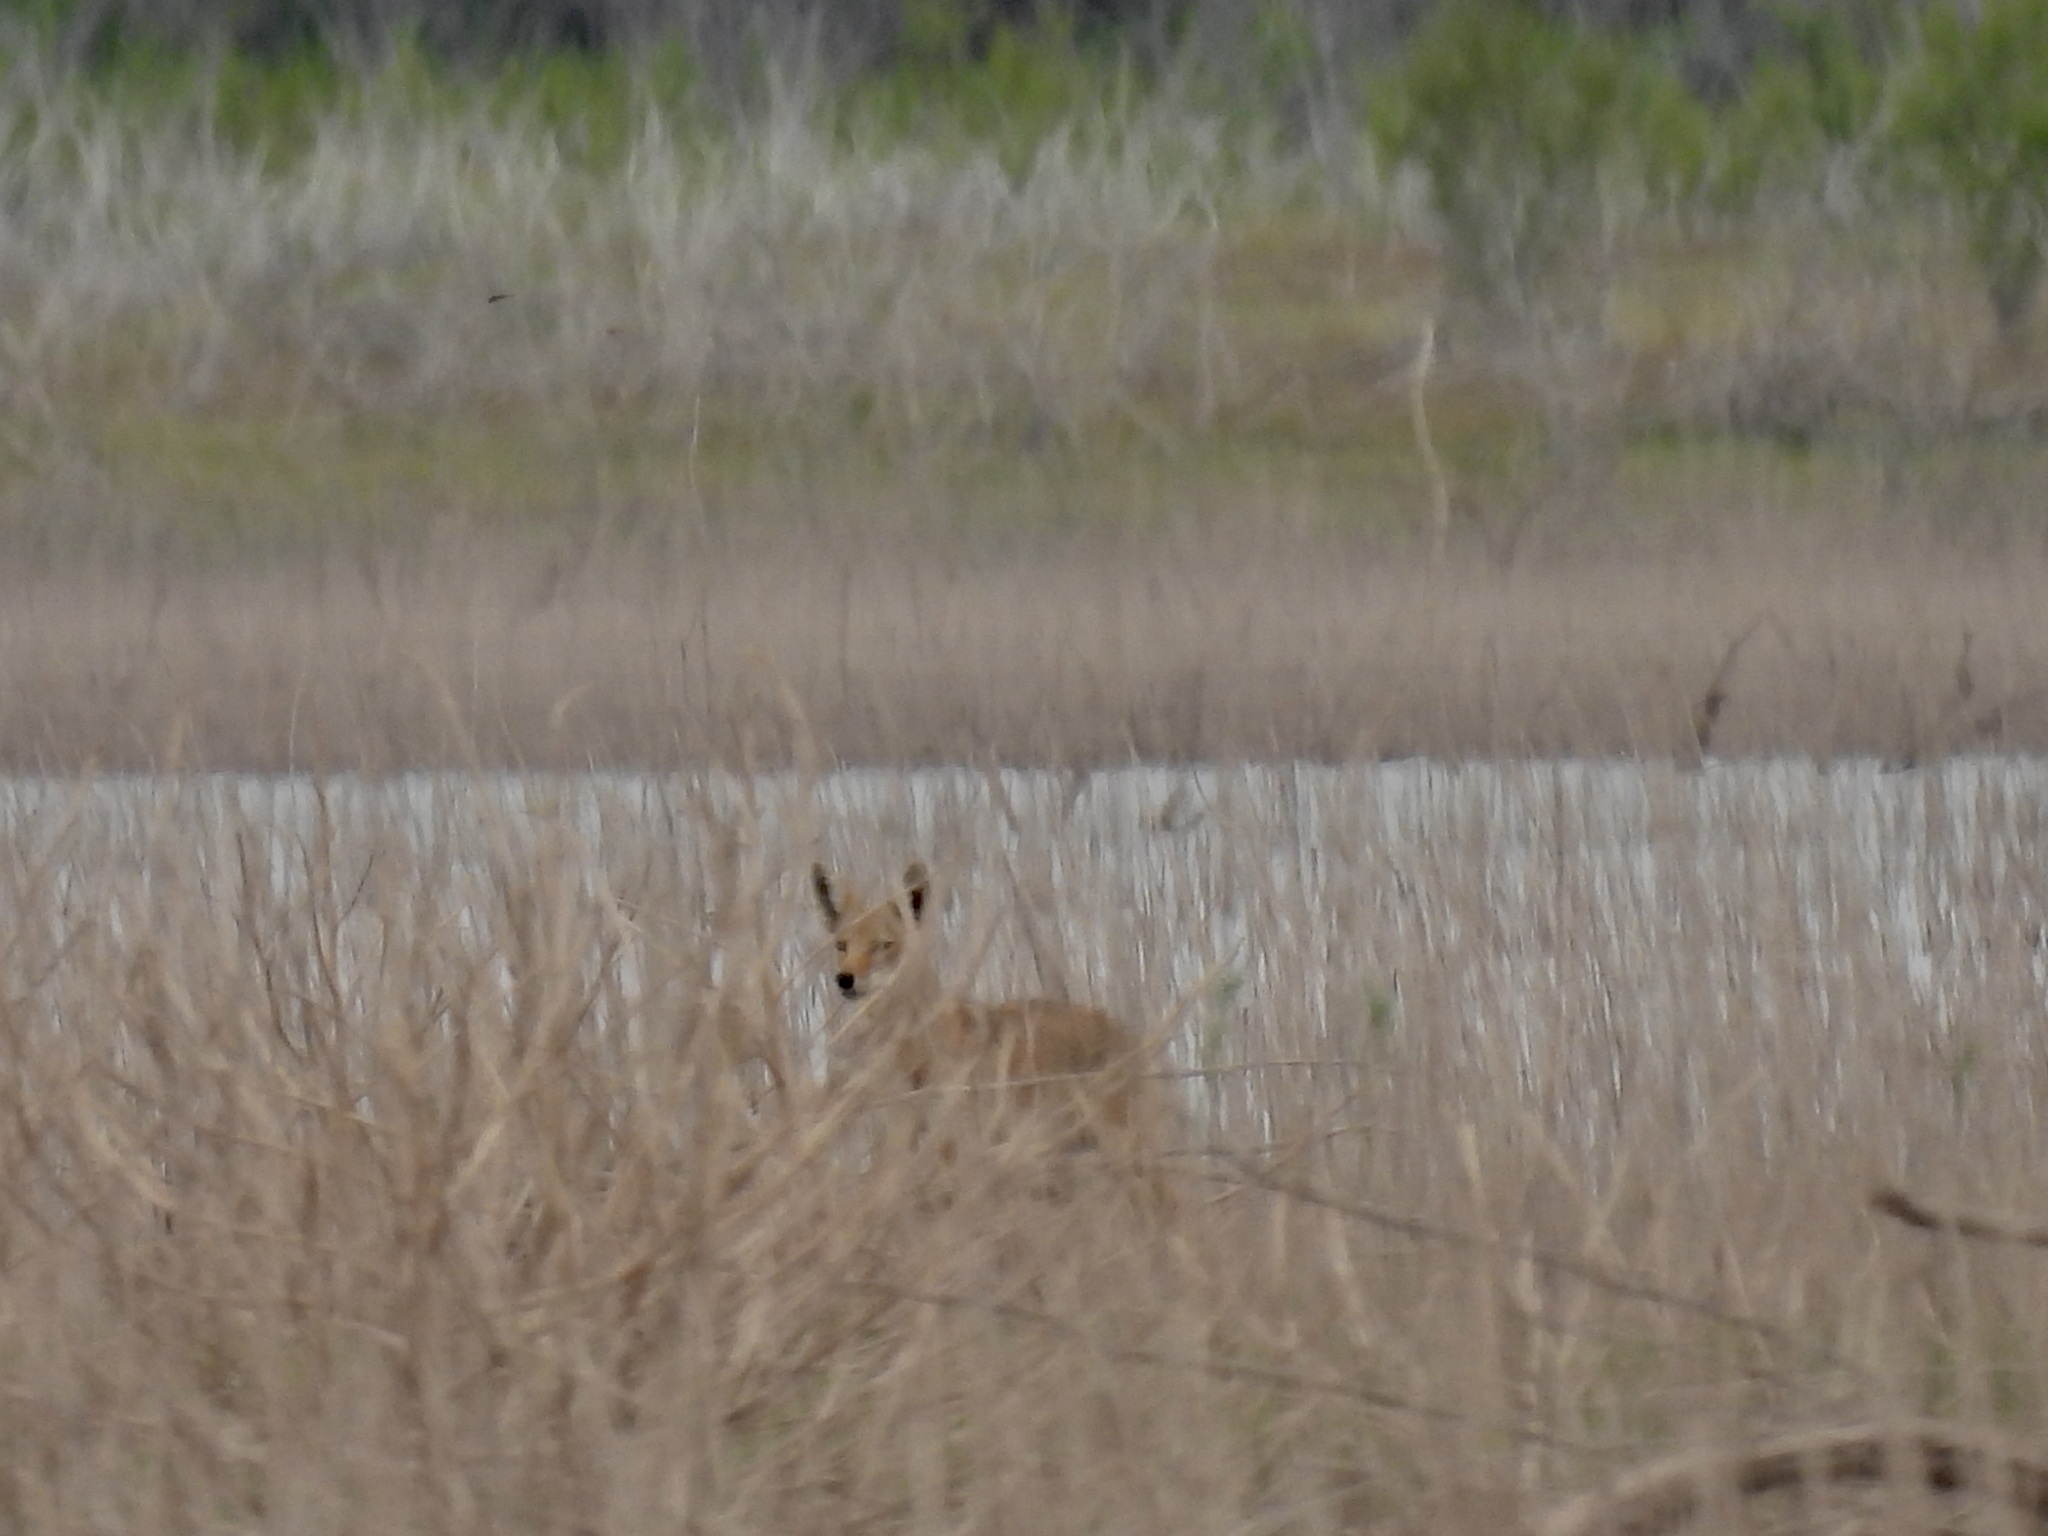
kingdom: Animalia
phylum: Chordata
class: Mammalia
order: Carnivora
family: Canidae
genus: Canis
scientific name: Canis latrans
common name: Coyote
